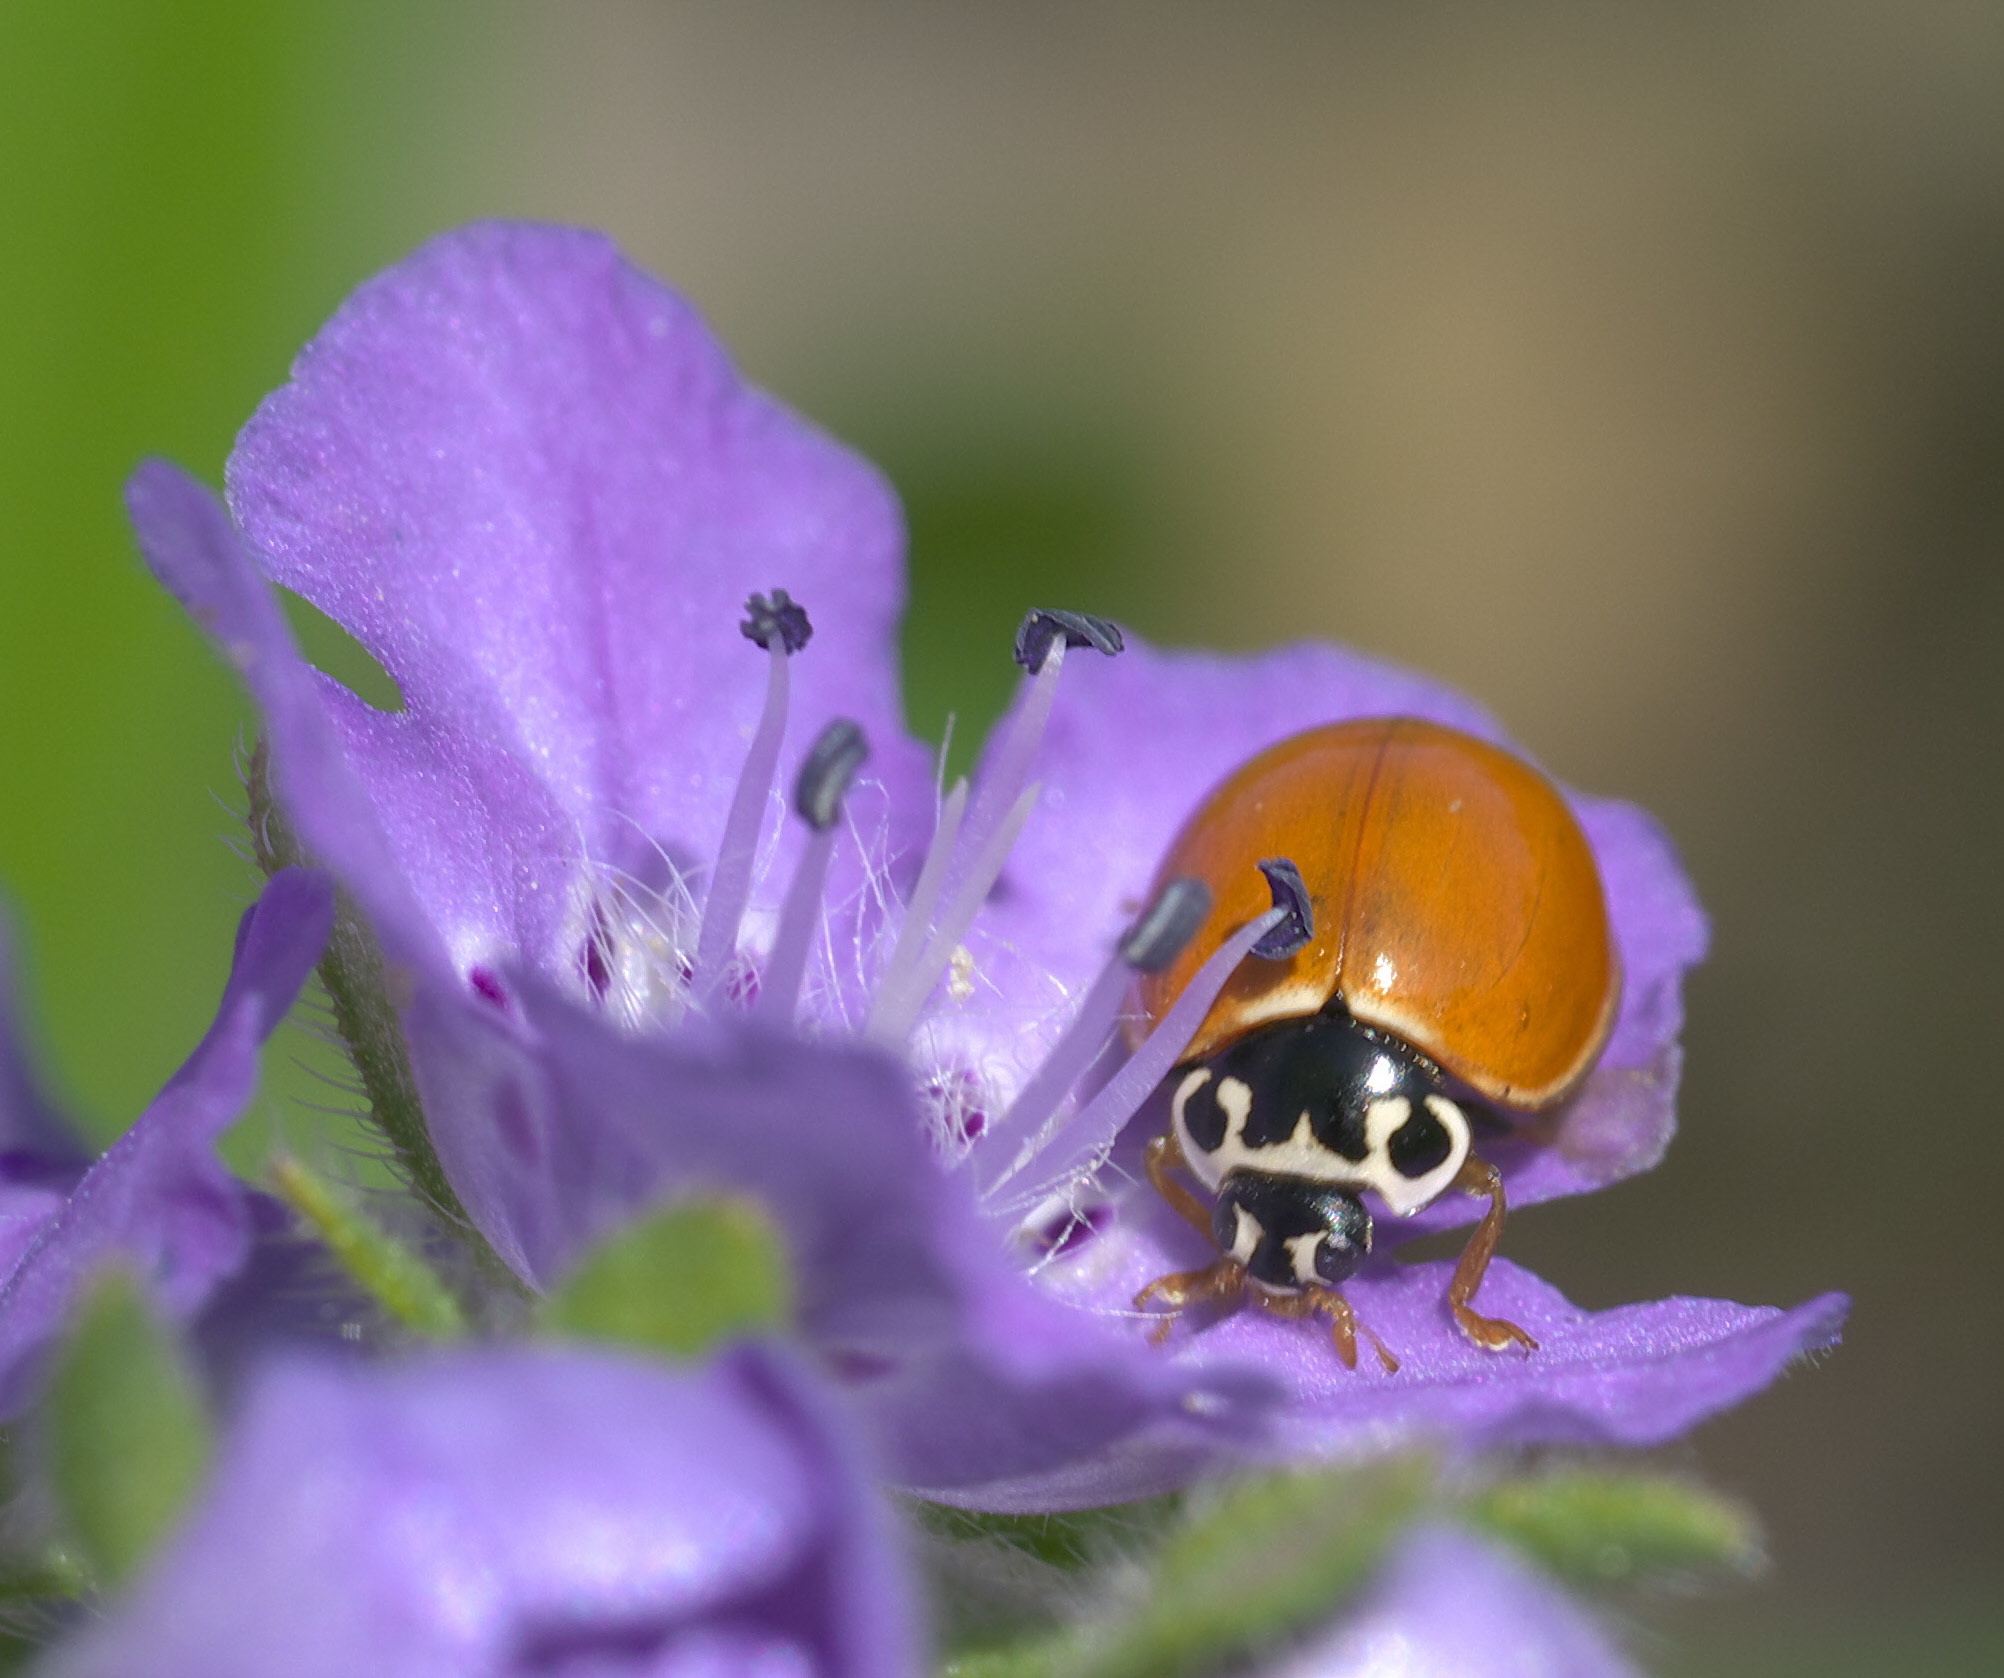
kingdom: Animalia
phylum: Arthropoda
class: Insecta
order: Coleoptera
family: Coccinellidae
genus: Cycloneda
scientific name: Cycloneda munda
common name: Polished lady beetle
